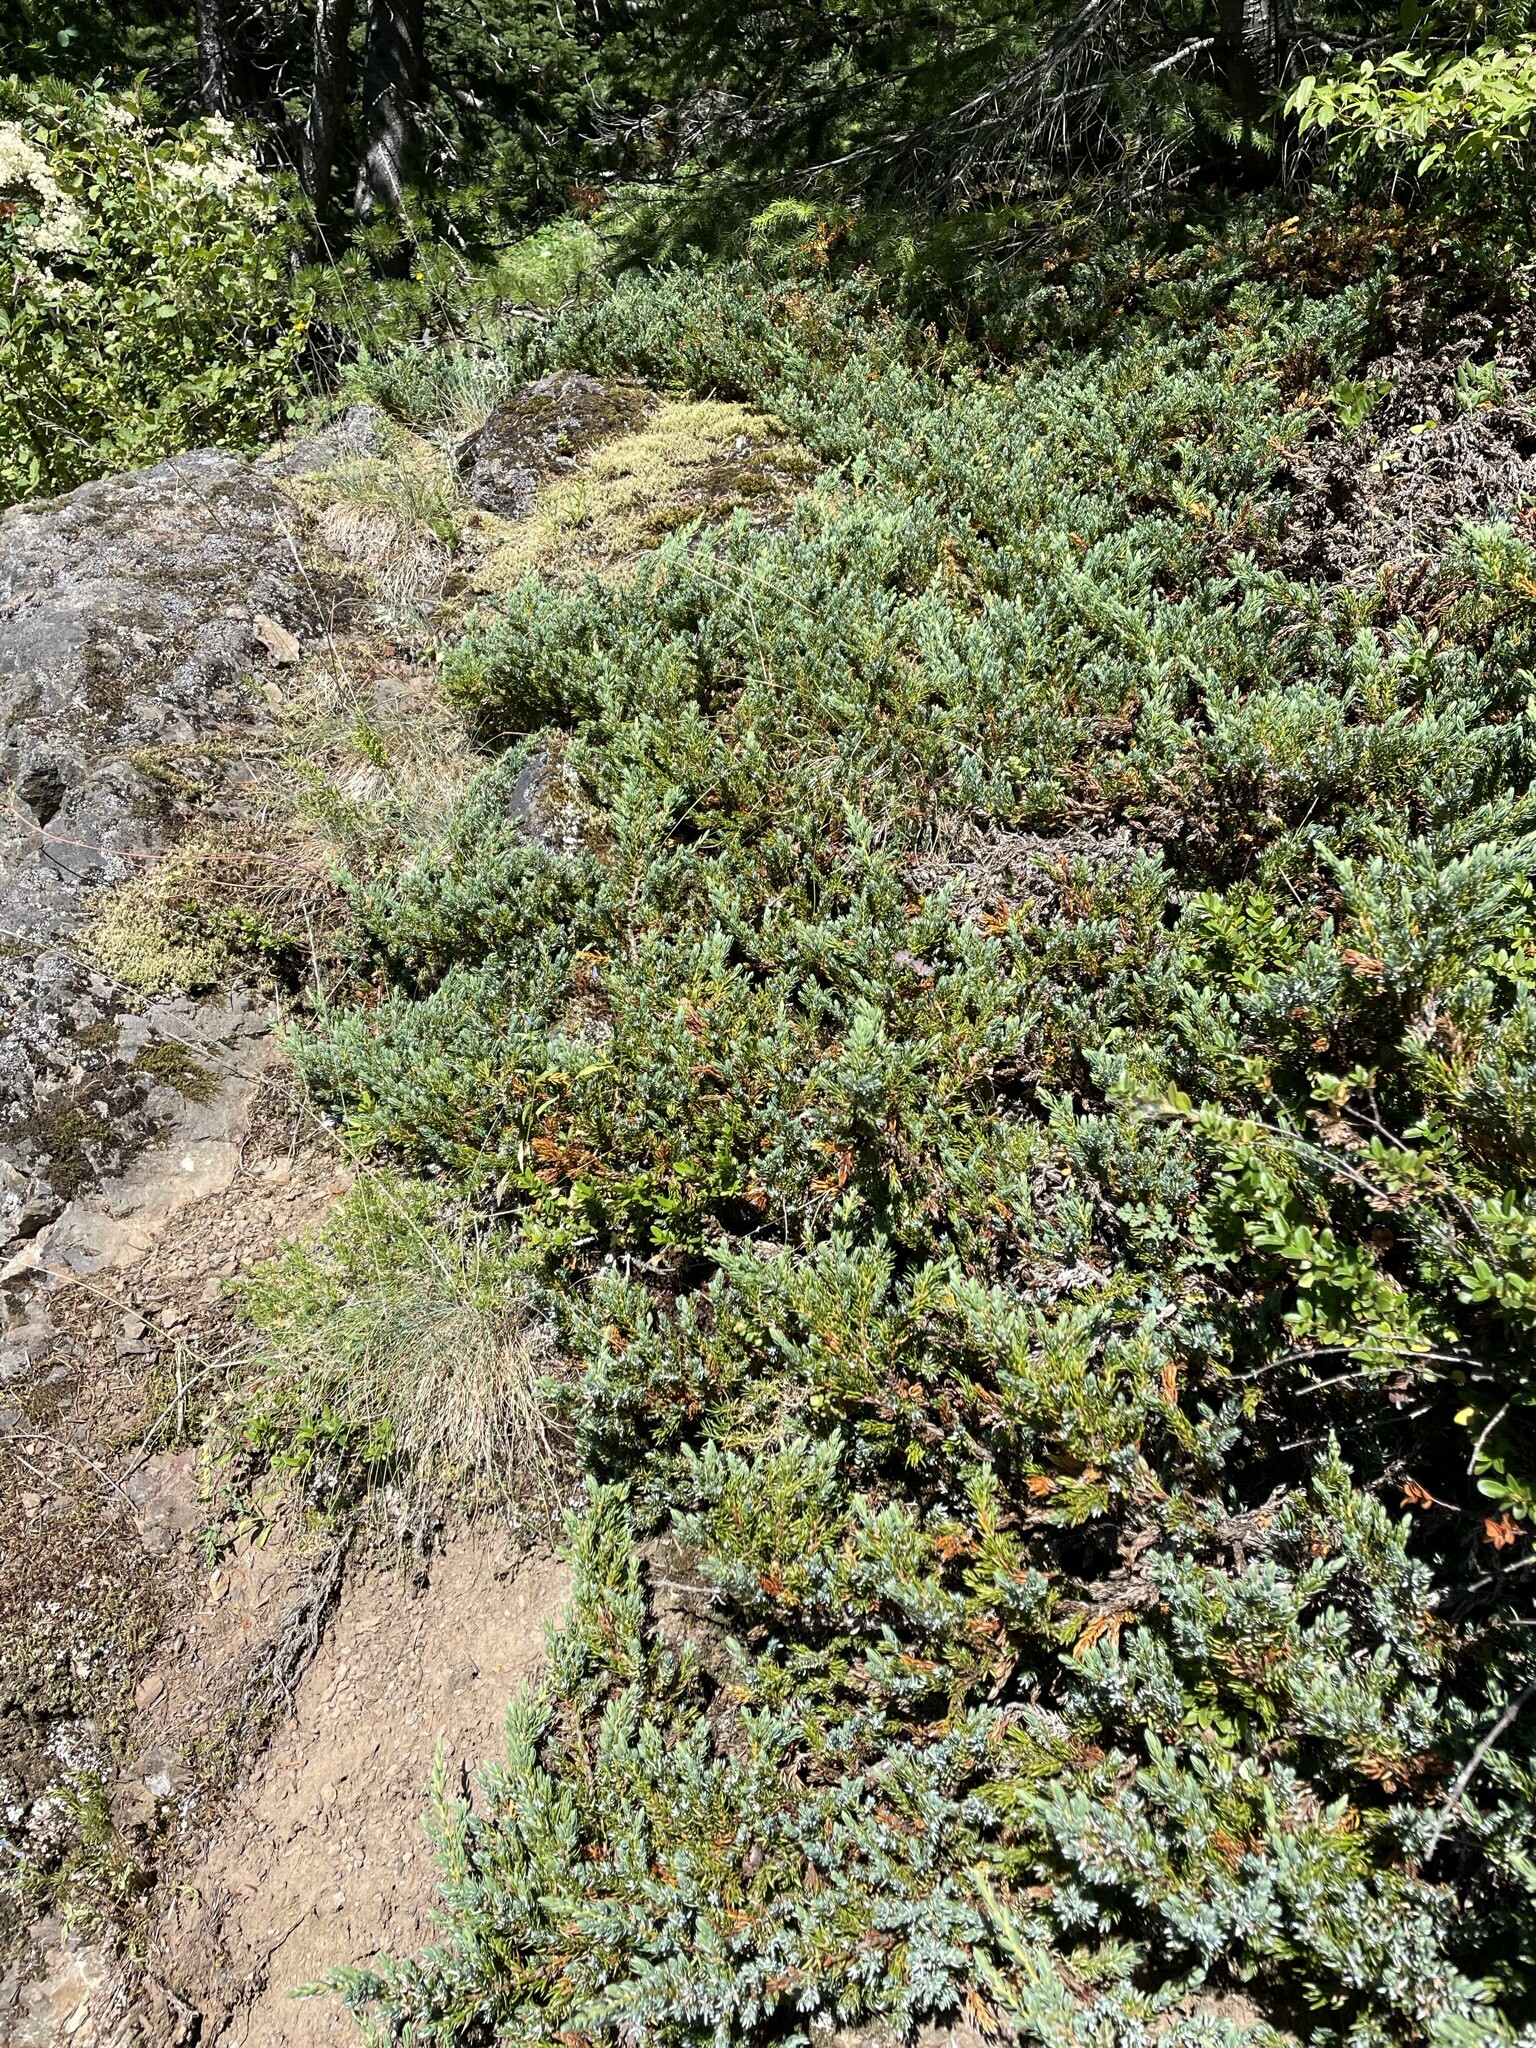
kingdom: Plantae
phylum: Tracheophyta
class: Pinopsida
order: Pinales
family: Cupressaceae
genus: Juniperus
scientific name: Juniperus communis
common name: Common juniper
